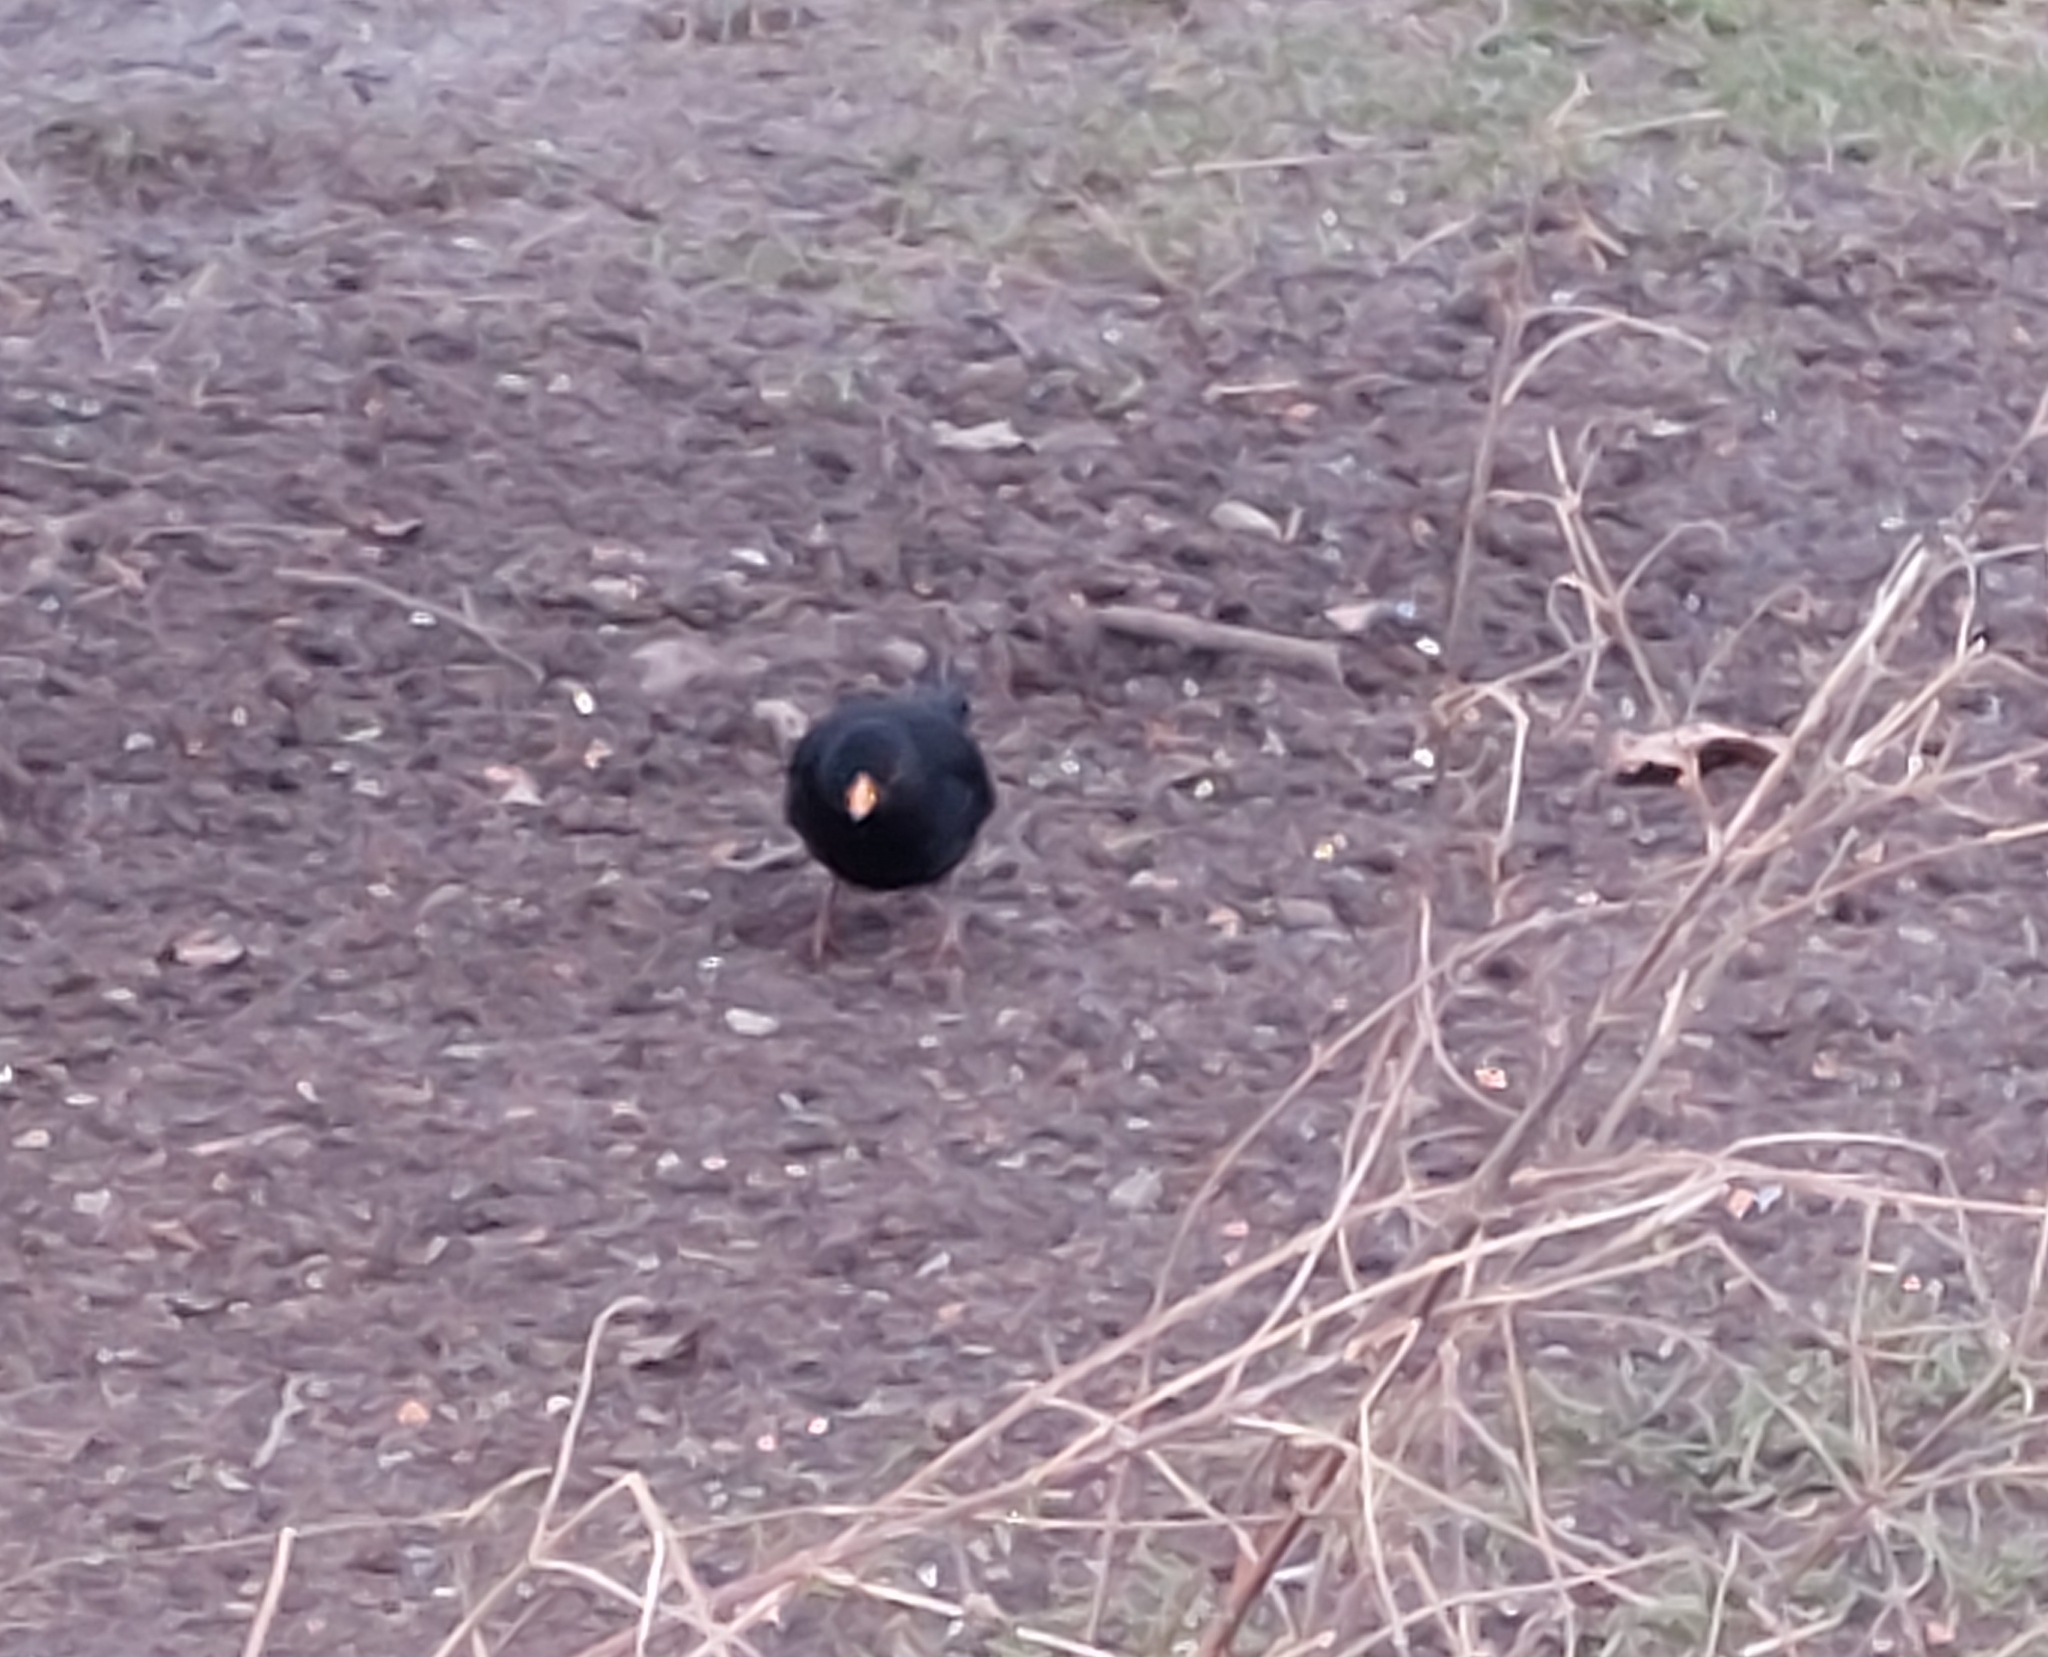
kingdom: Animalia
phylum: Chordata
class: Aves
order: Passeriformes
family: Turdidae
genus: Turdus
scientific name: Turdus merula
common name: Common blackbird
